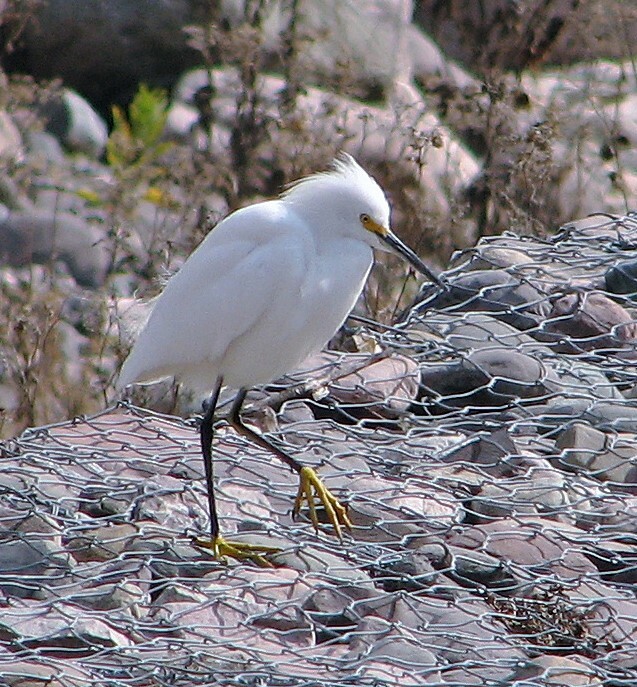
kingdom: Animalia
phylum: Chordata
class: Aves
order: Pelecaniformes
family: Ardeidae
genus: Egretta
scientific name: Egretta thula
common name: Snowy egret
